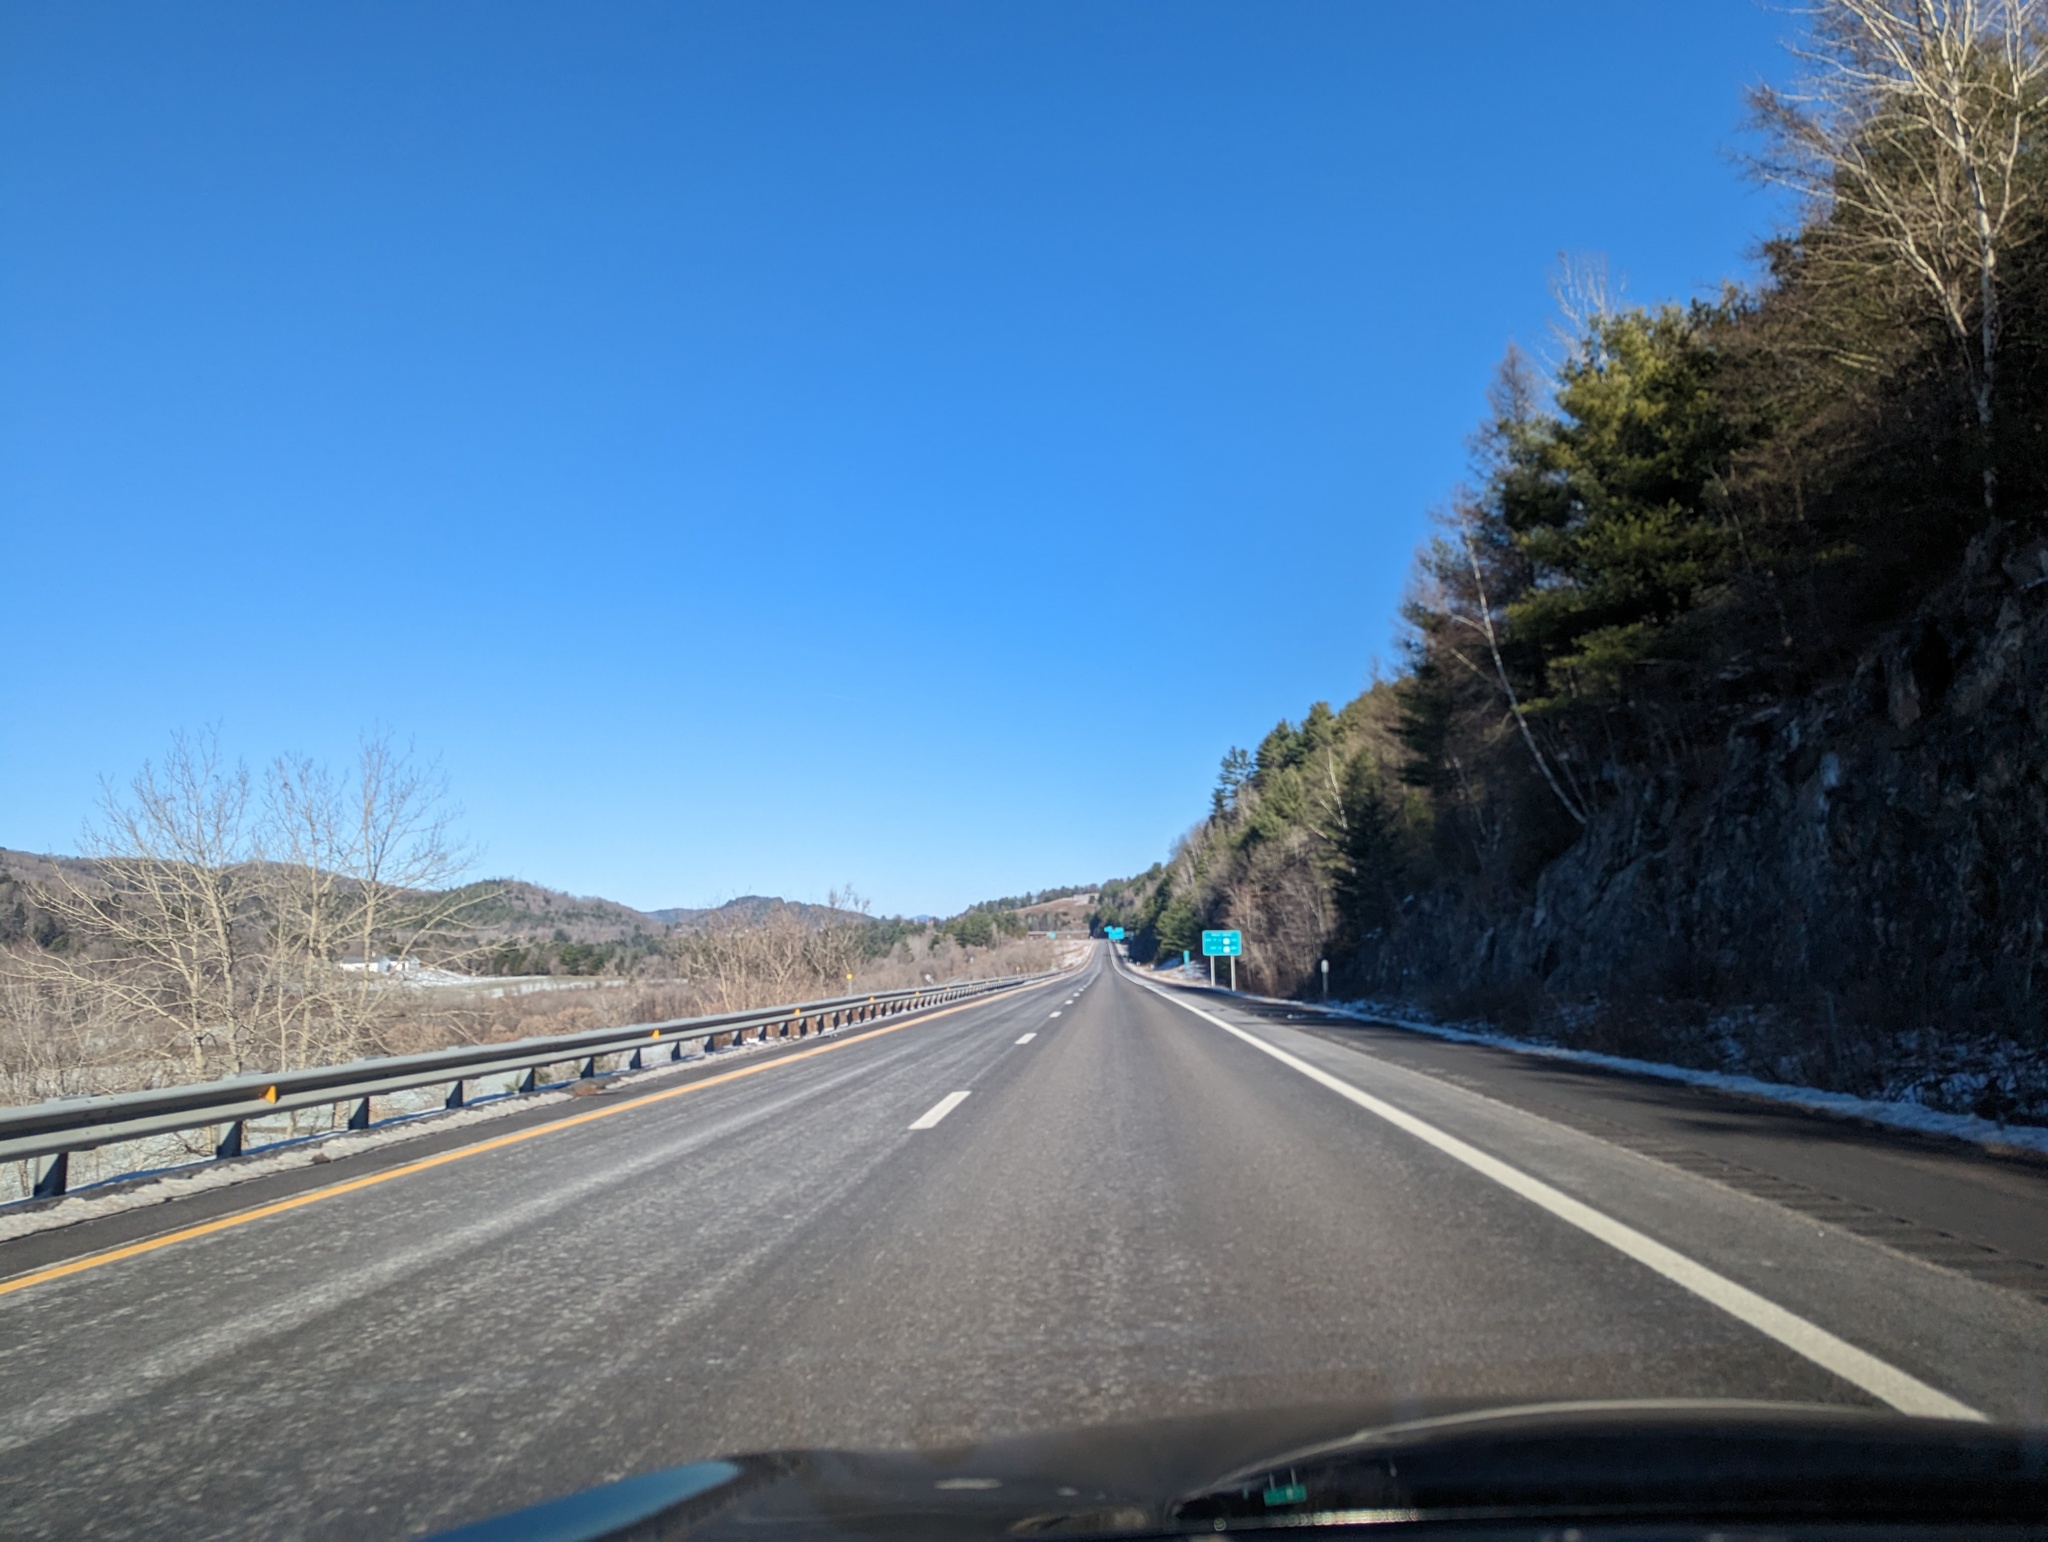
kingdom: Plantae
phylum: Tracheophyta
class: Pinopsida
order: Pinales
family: Pinaceae
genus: Pinus
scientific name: Pinus strobus
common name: Weymouth pine
